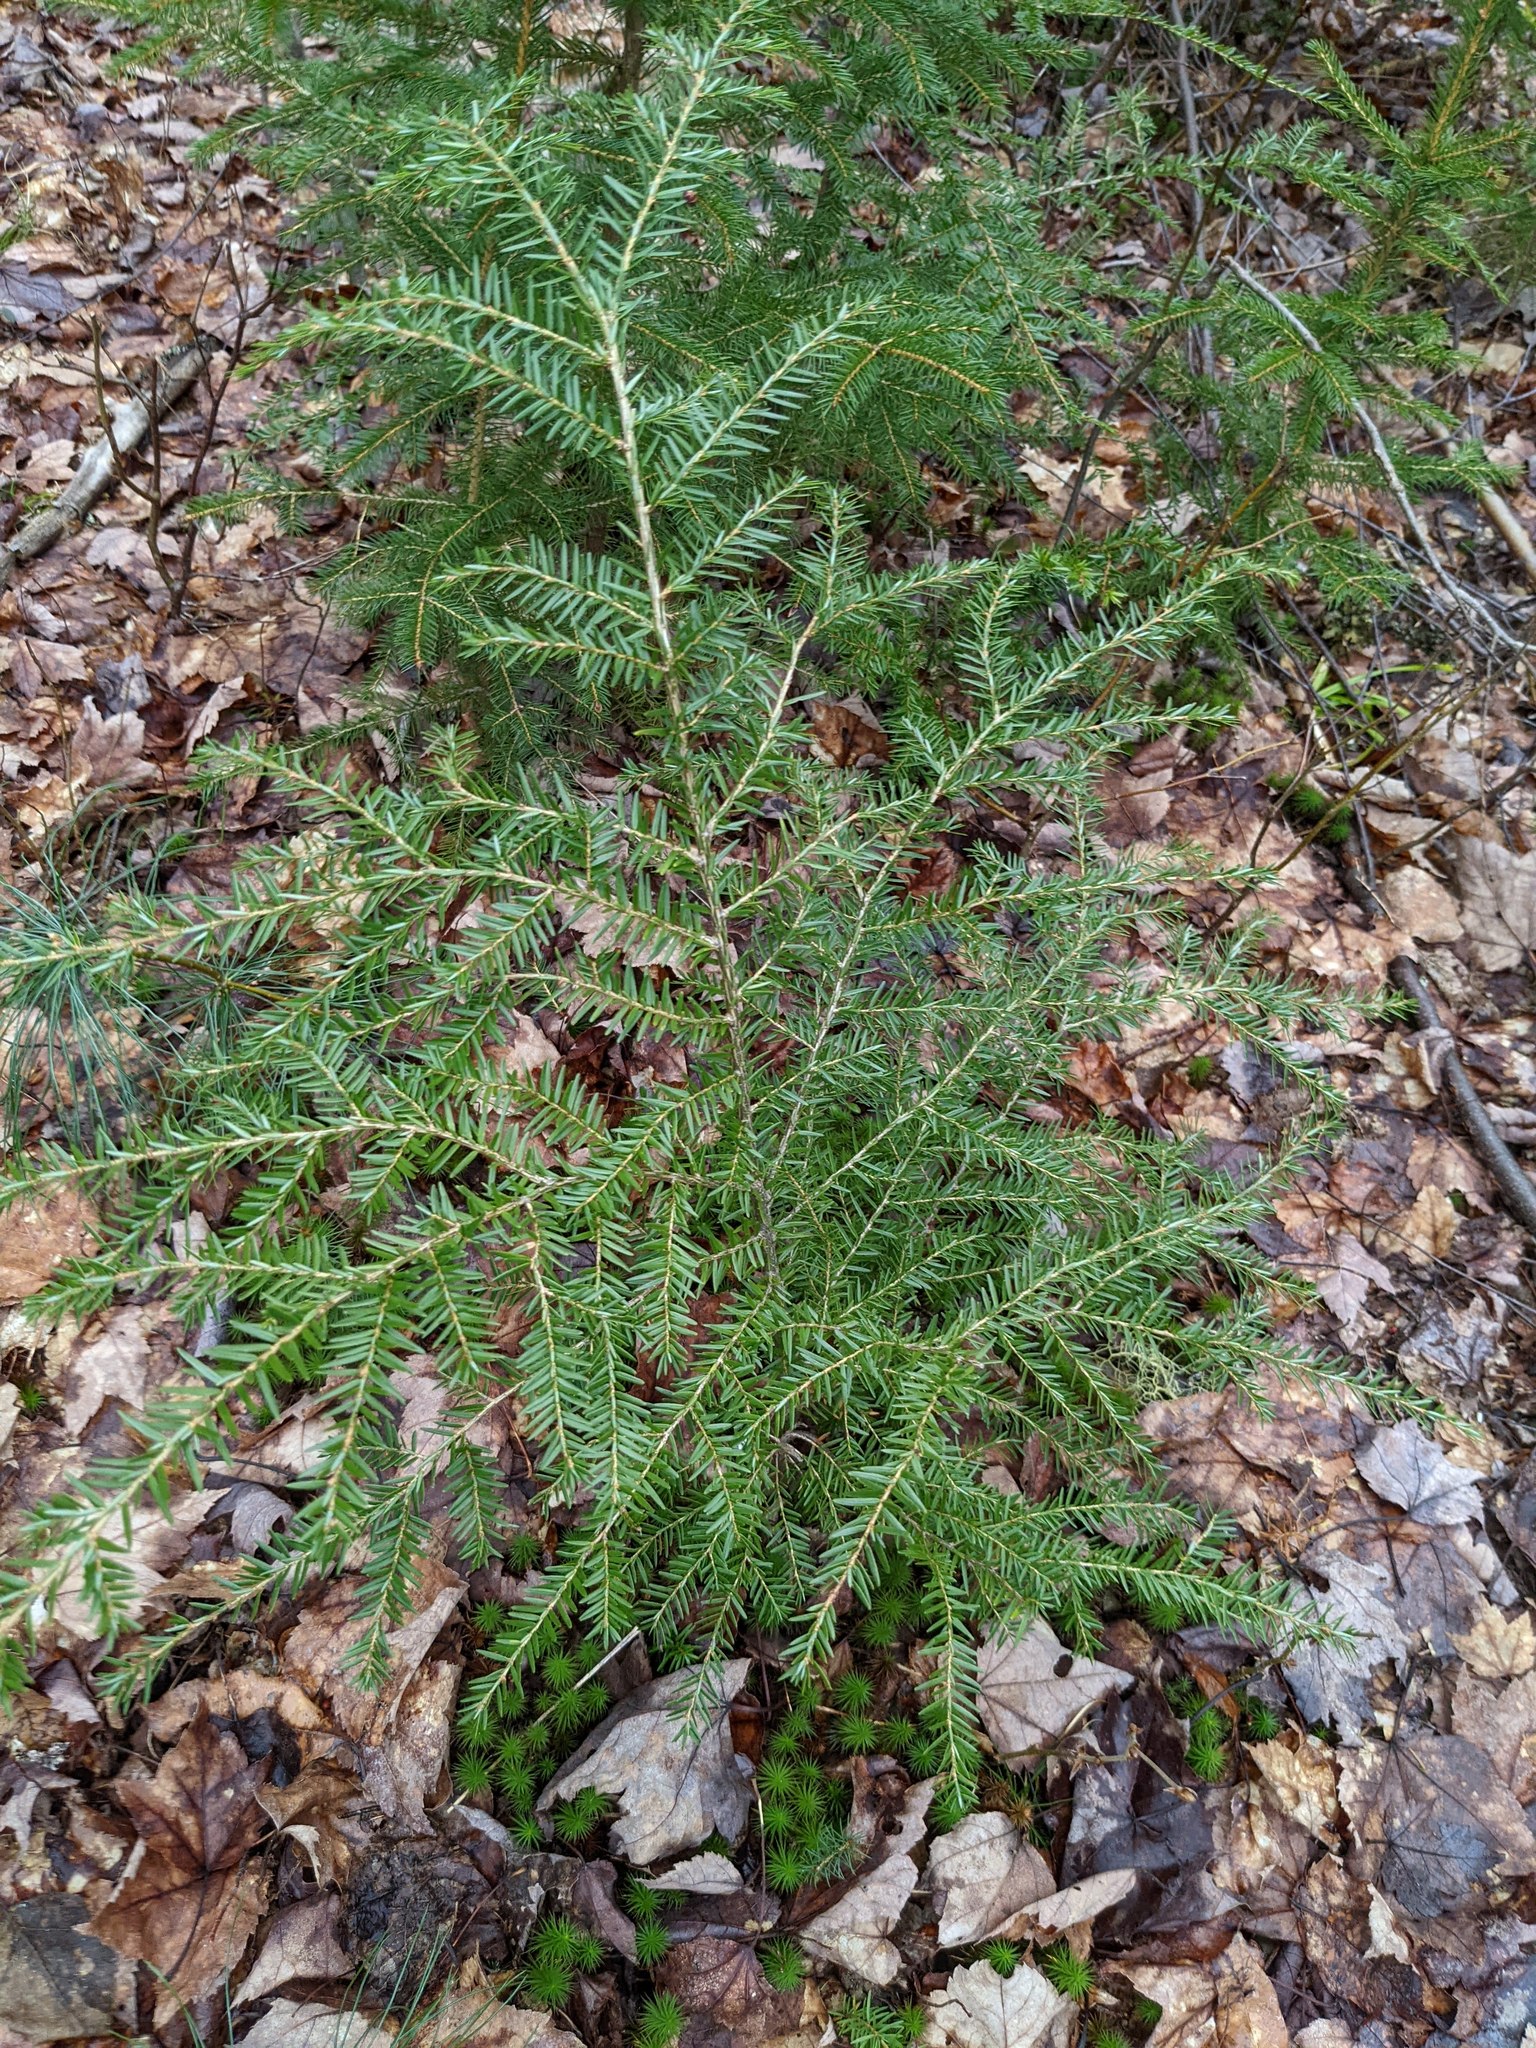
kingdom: Plantae
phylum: Tracheophyta
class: Pinopsida
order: Pinales
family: Pinaceae
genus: Tsuga
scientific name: Tsuga canadensis
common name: Eastern hemlock
